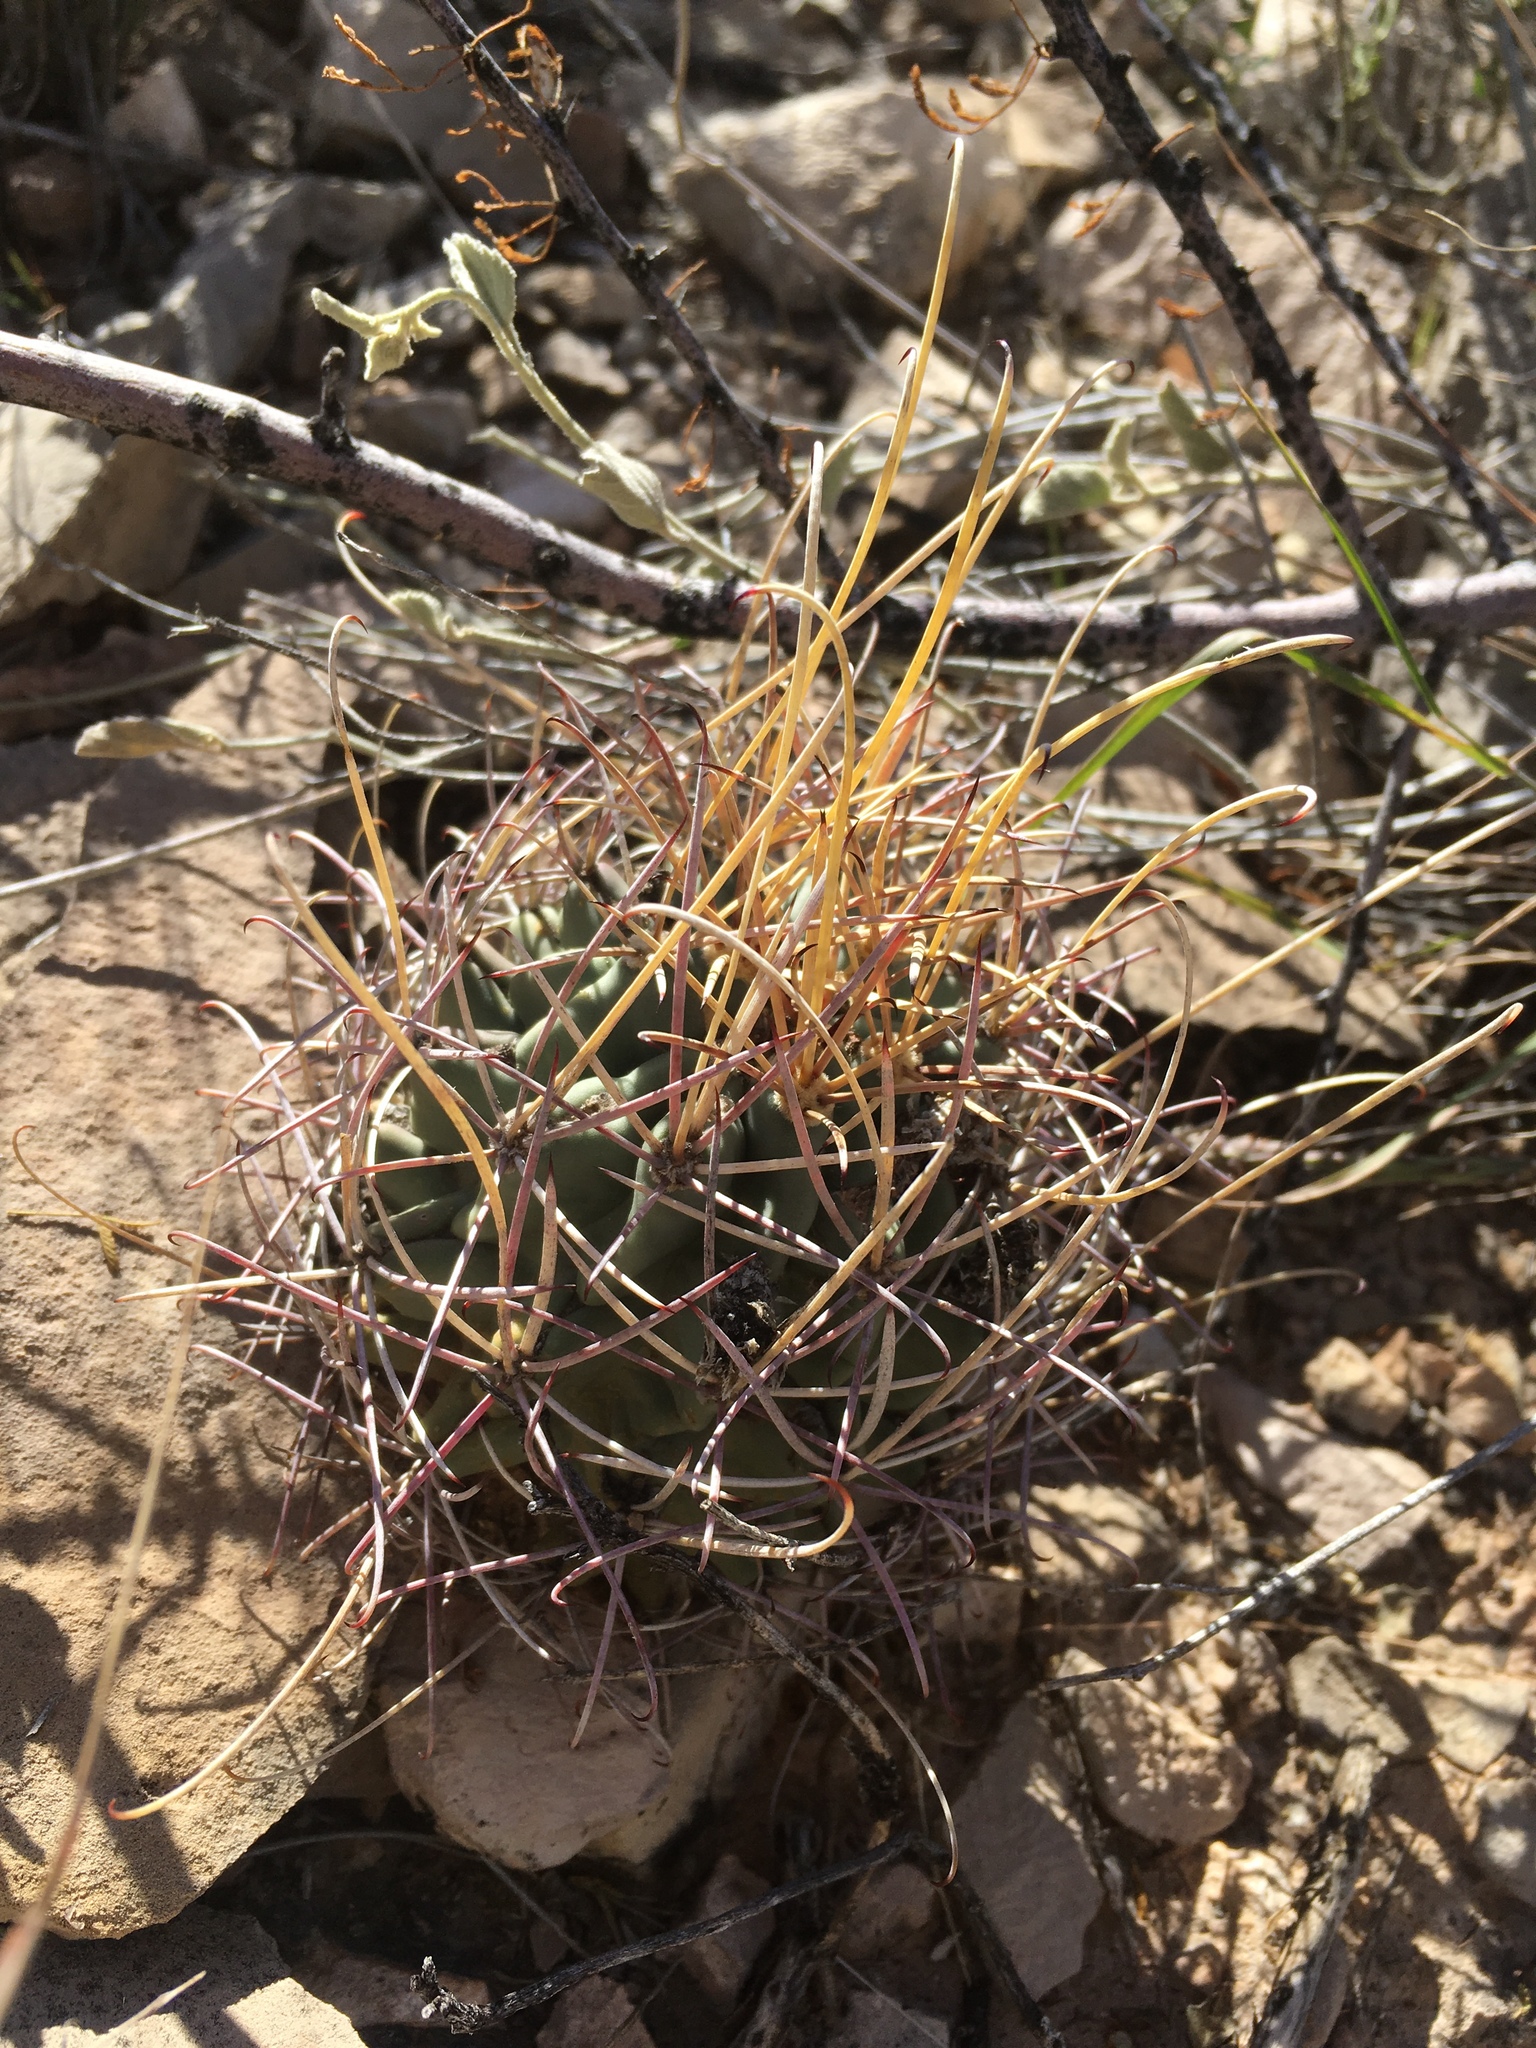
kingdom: Plantae
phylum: Tracheophyta
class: Magnoliopsida
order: Caryophyllales
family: Cactaceae
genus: Ferocactus
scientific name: Ferocactus uncinatus
